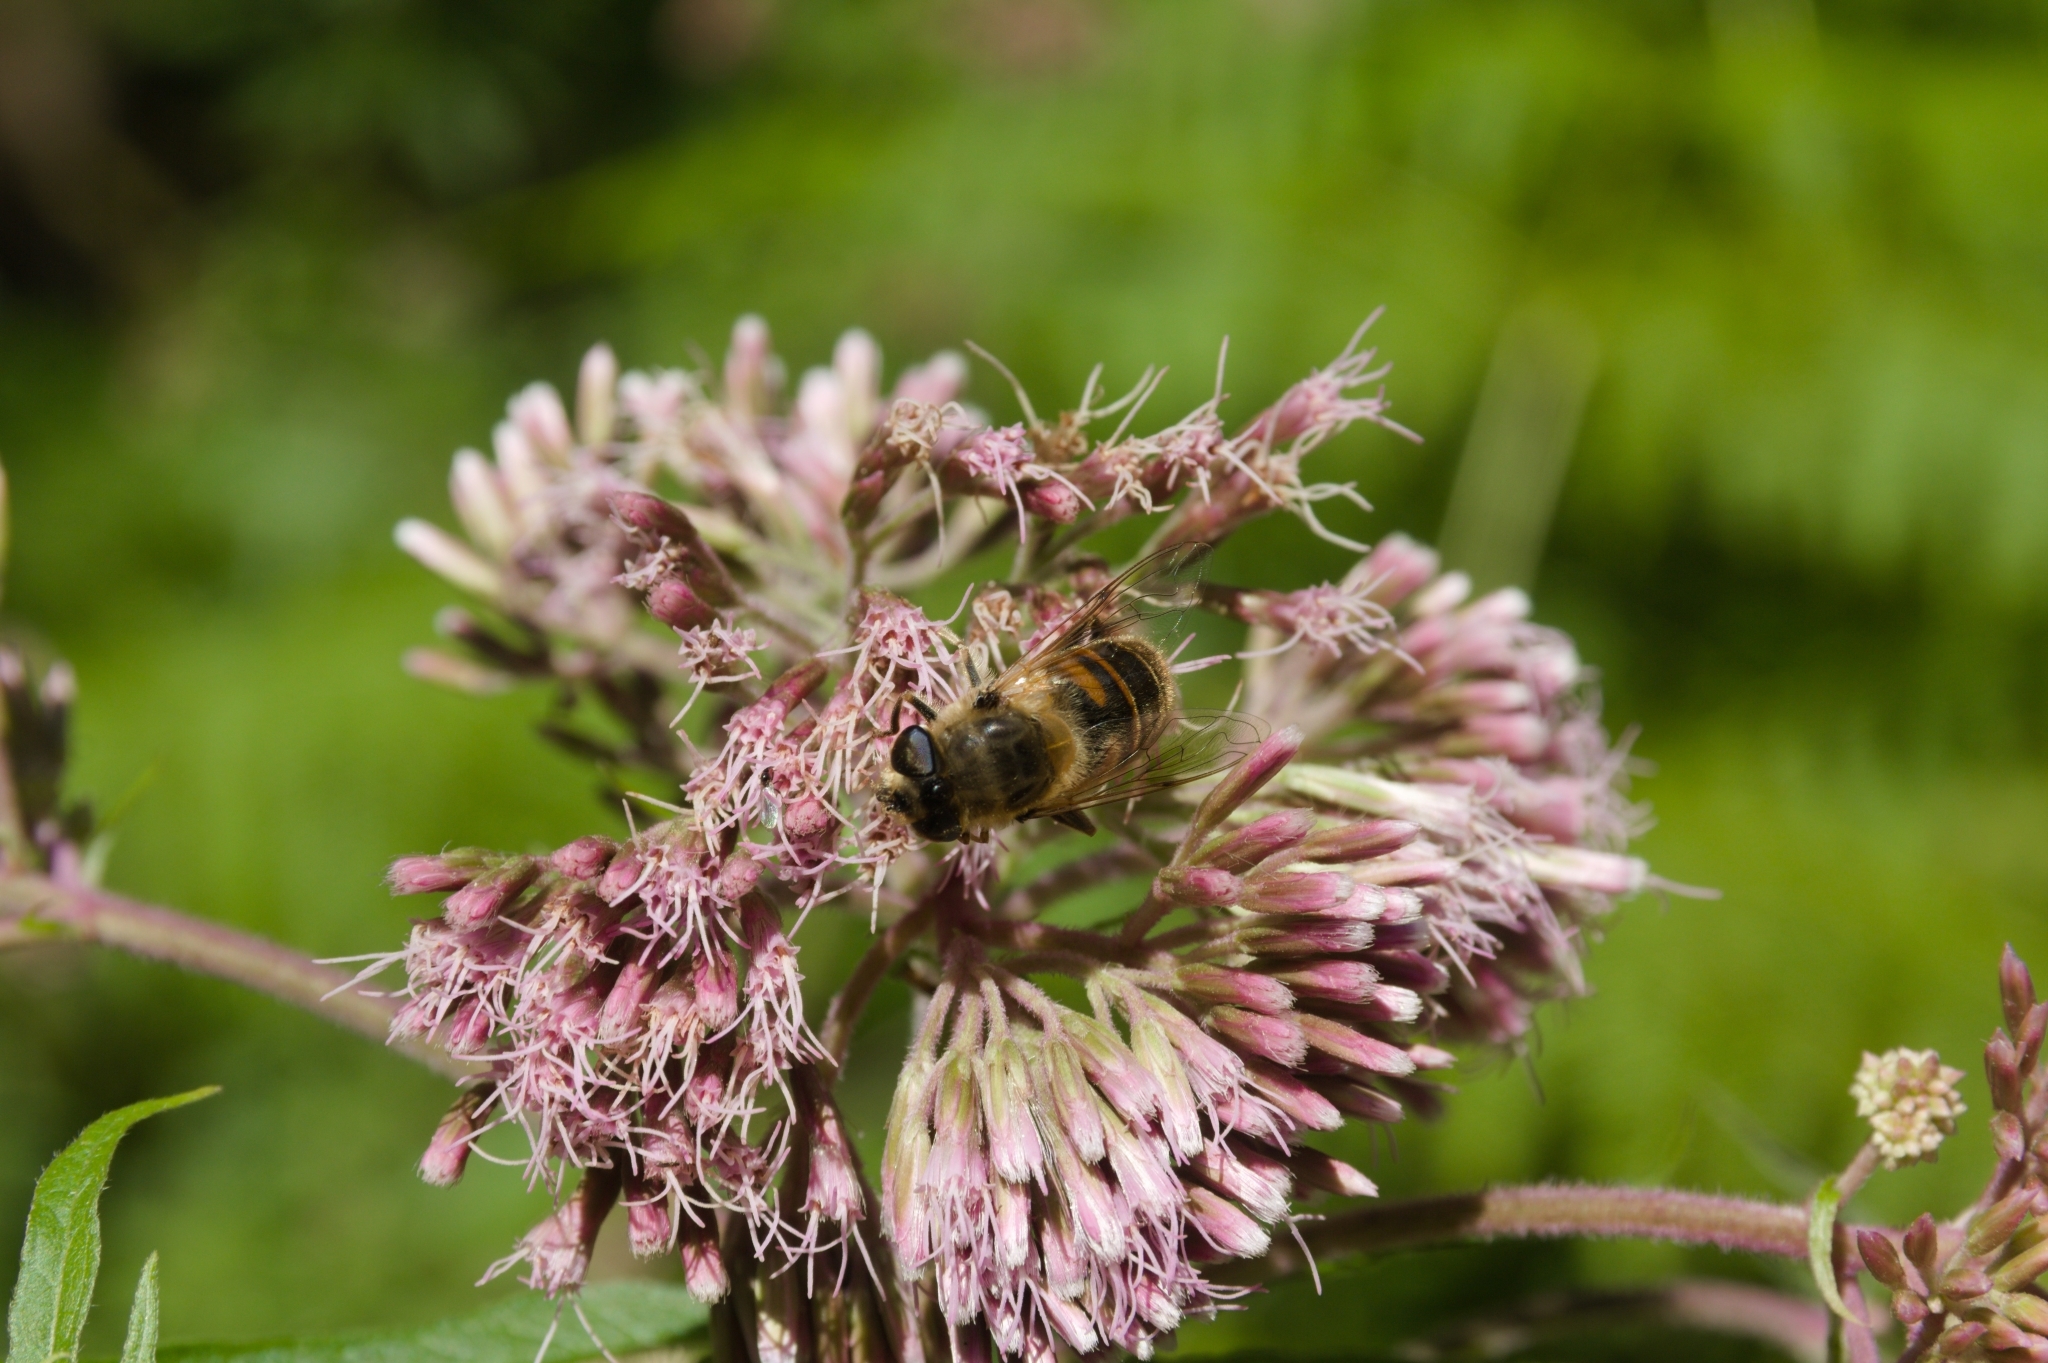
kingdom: Animalia
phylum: Arthropoda
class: Insecta
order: Diptera
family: Syrphidae
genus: Eristalis
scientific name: Eristalis tenax
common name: Drone fly
